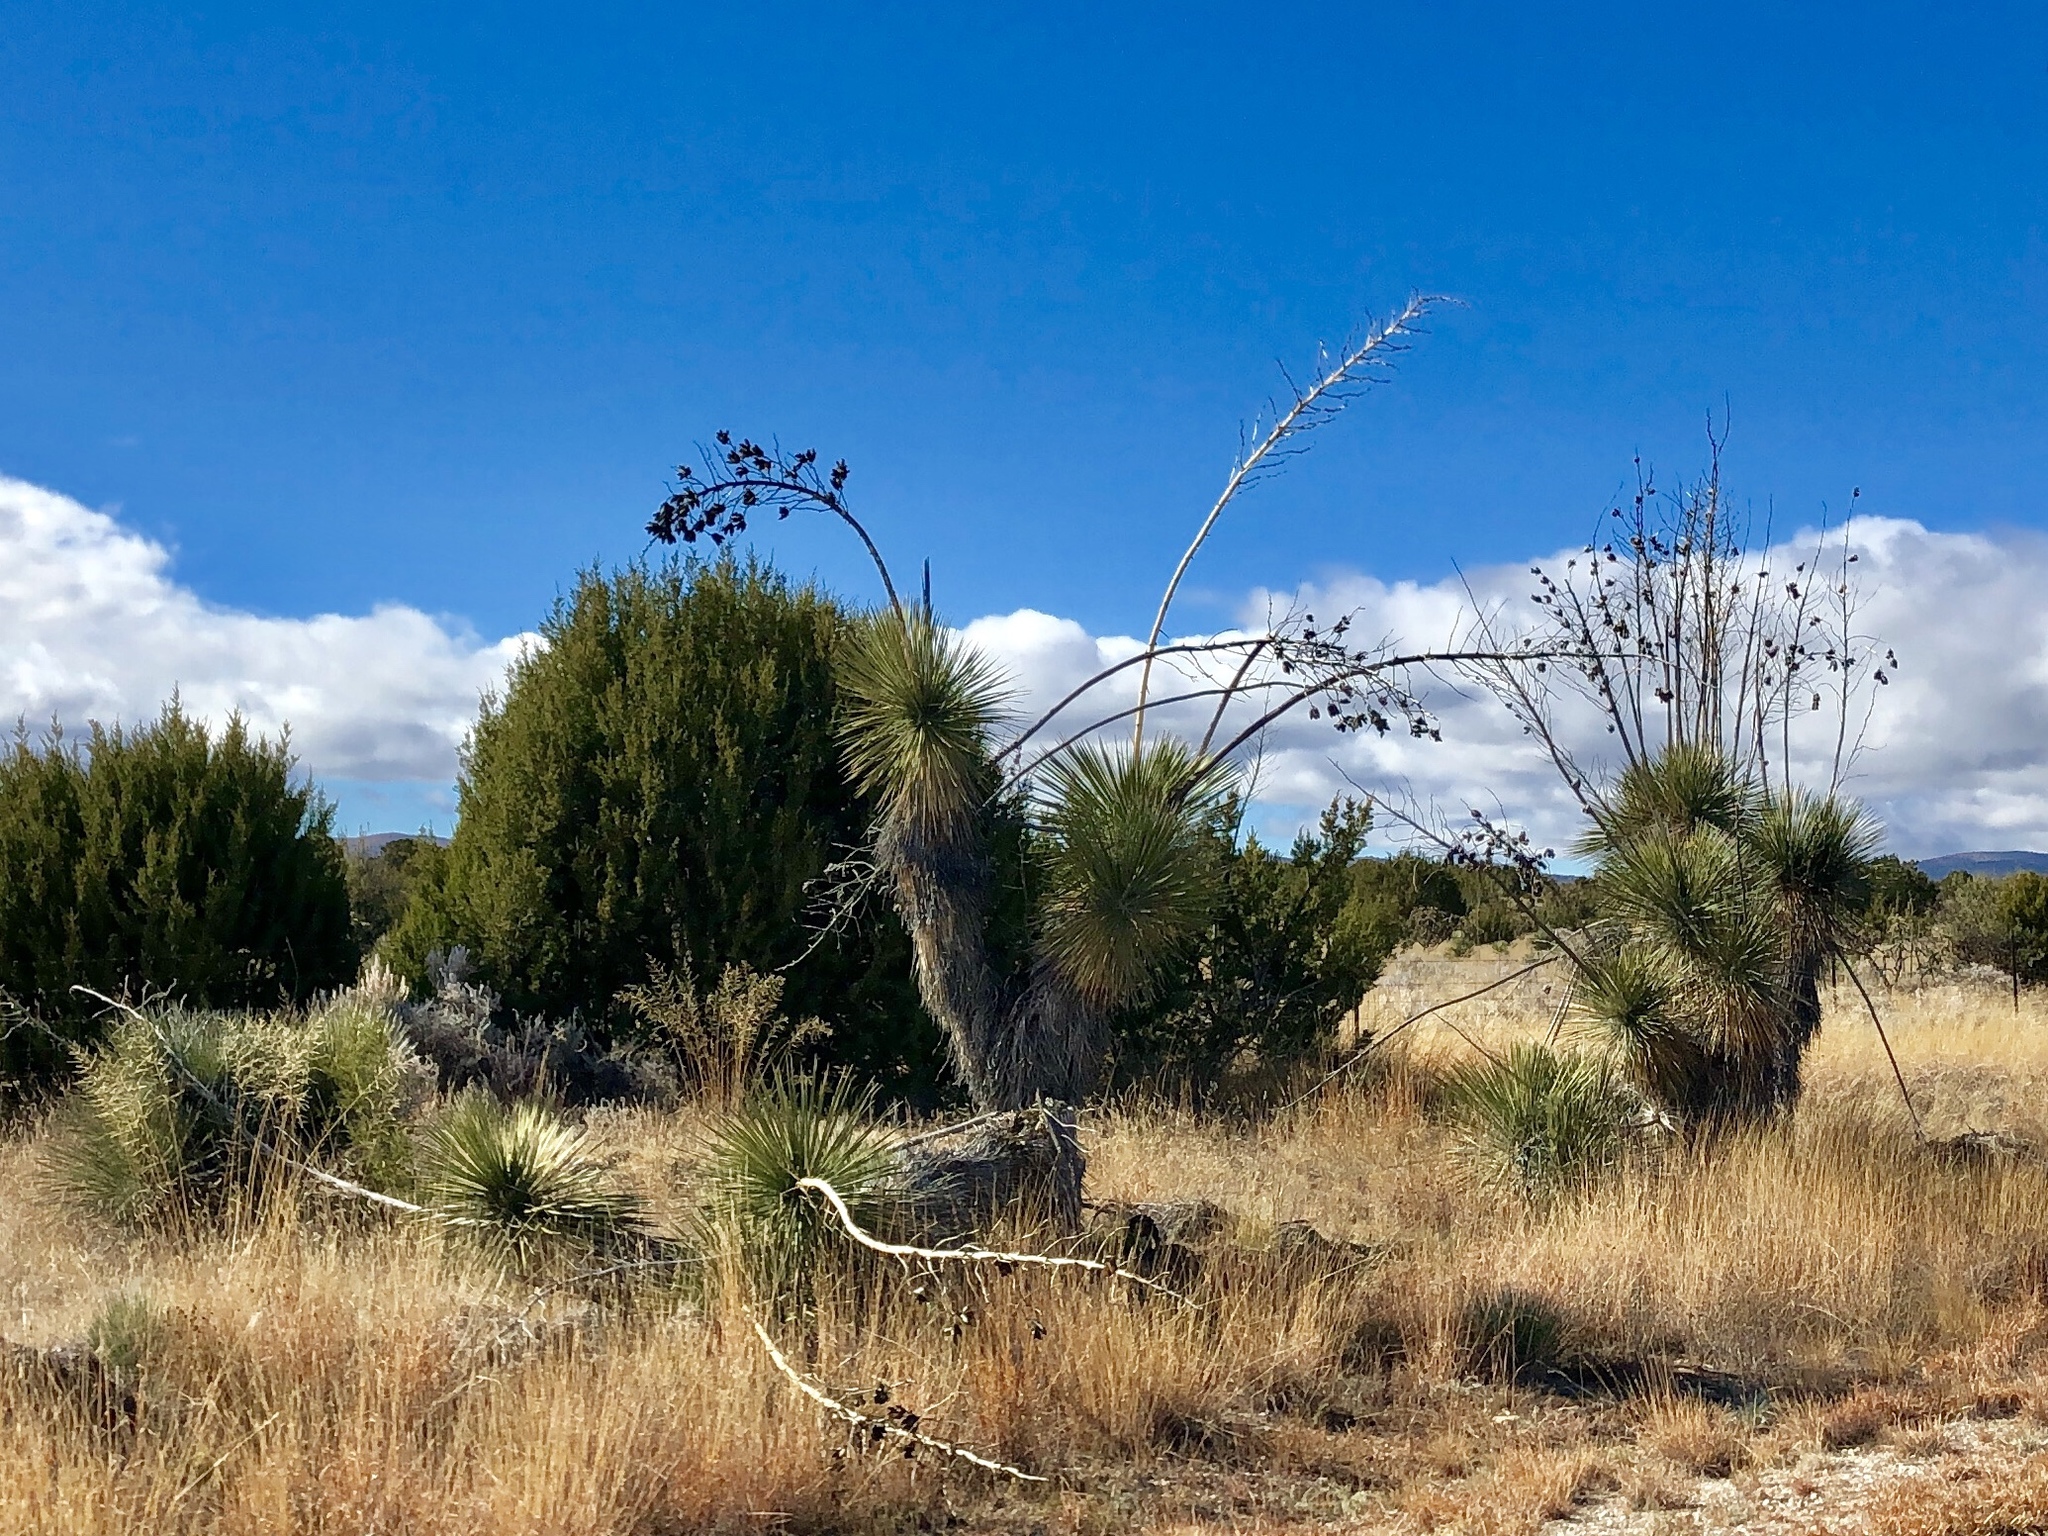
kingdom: Plantae
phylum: Tracheophyta
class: Liliopsida
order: Asparagales
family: Asparagaceae
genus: Yucca
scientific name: Yucca elata
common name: Palmella
